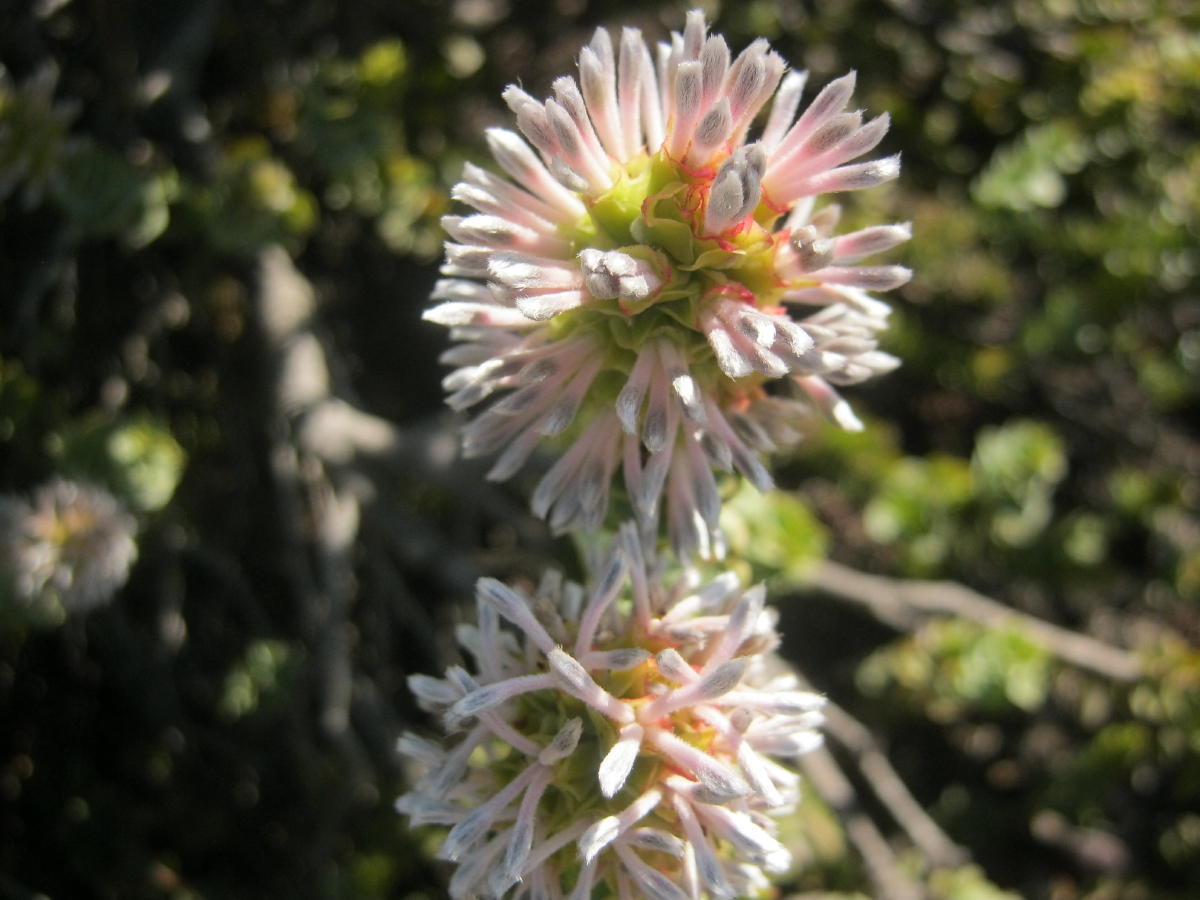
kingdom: Plantae
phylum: Tracheophyta
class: Magnoliopsida
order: Proteales
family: Proteaceae
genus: Paranomus
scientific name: Paranomus roodebergensis
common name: Honey-scented sceptre
